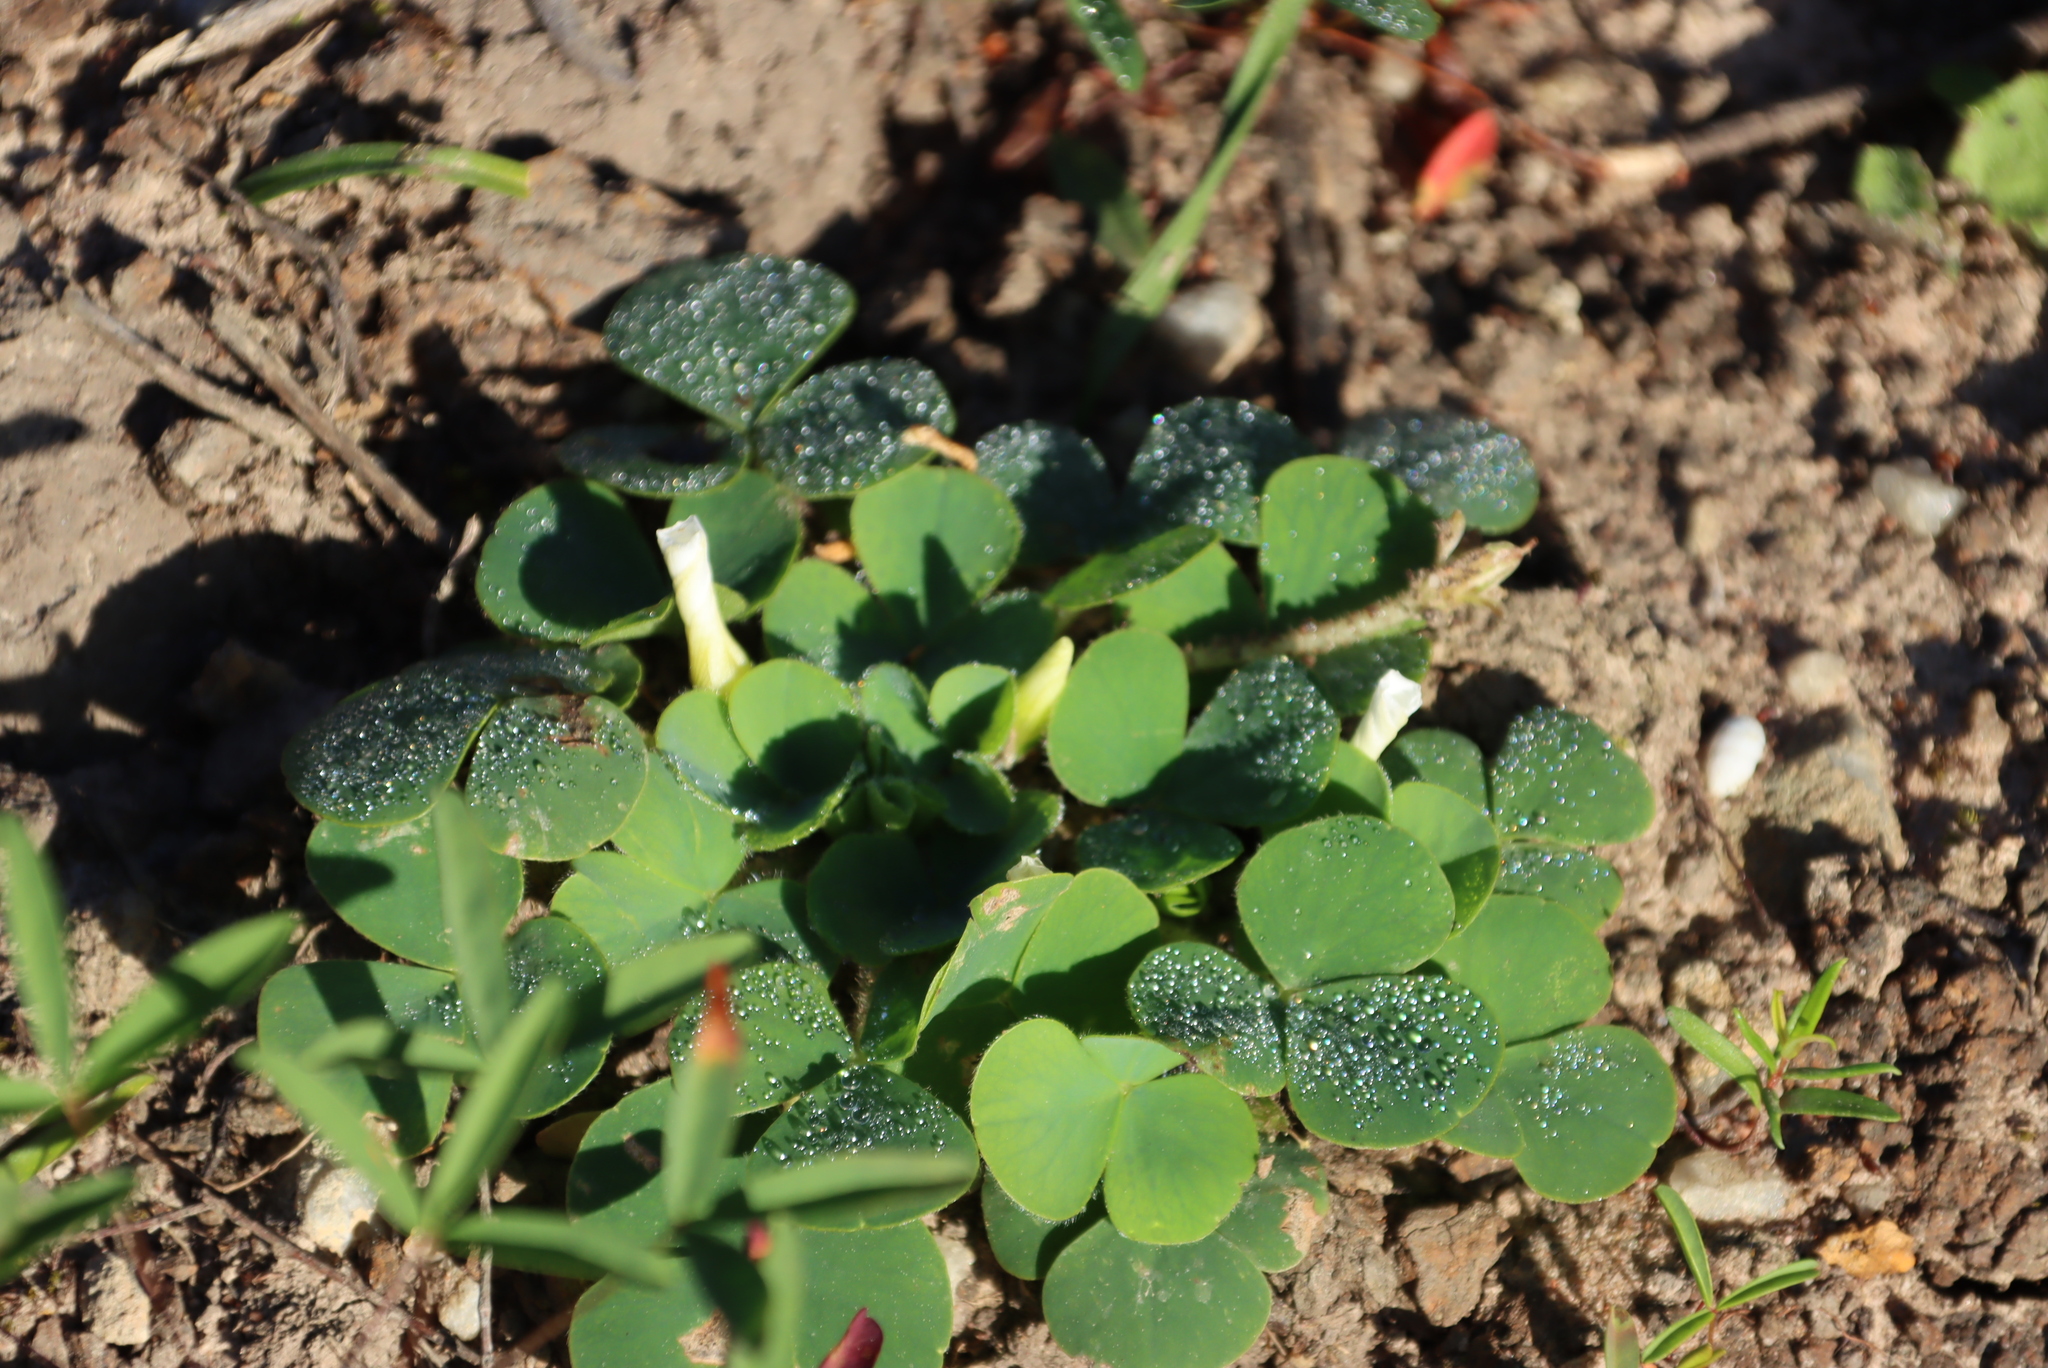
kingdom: Plantae
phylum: Tracheophyta
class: Magnoliopsida
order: Oxalidales
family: Oxalidaceae
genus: Oxalis
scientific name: Oxalis purpurea
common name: Purple woodsorrel
